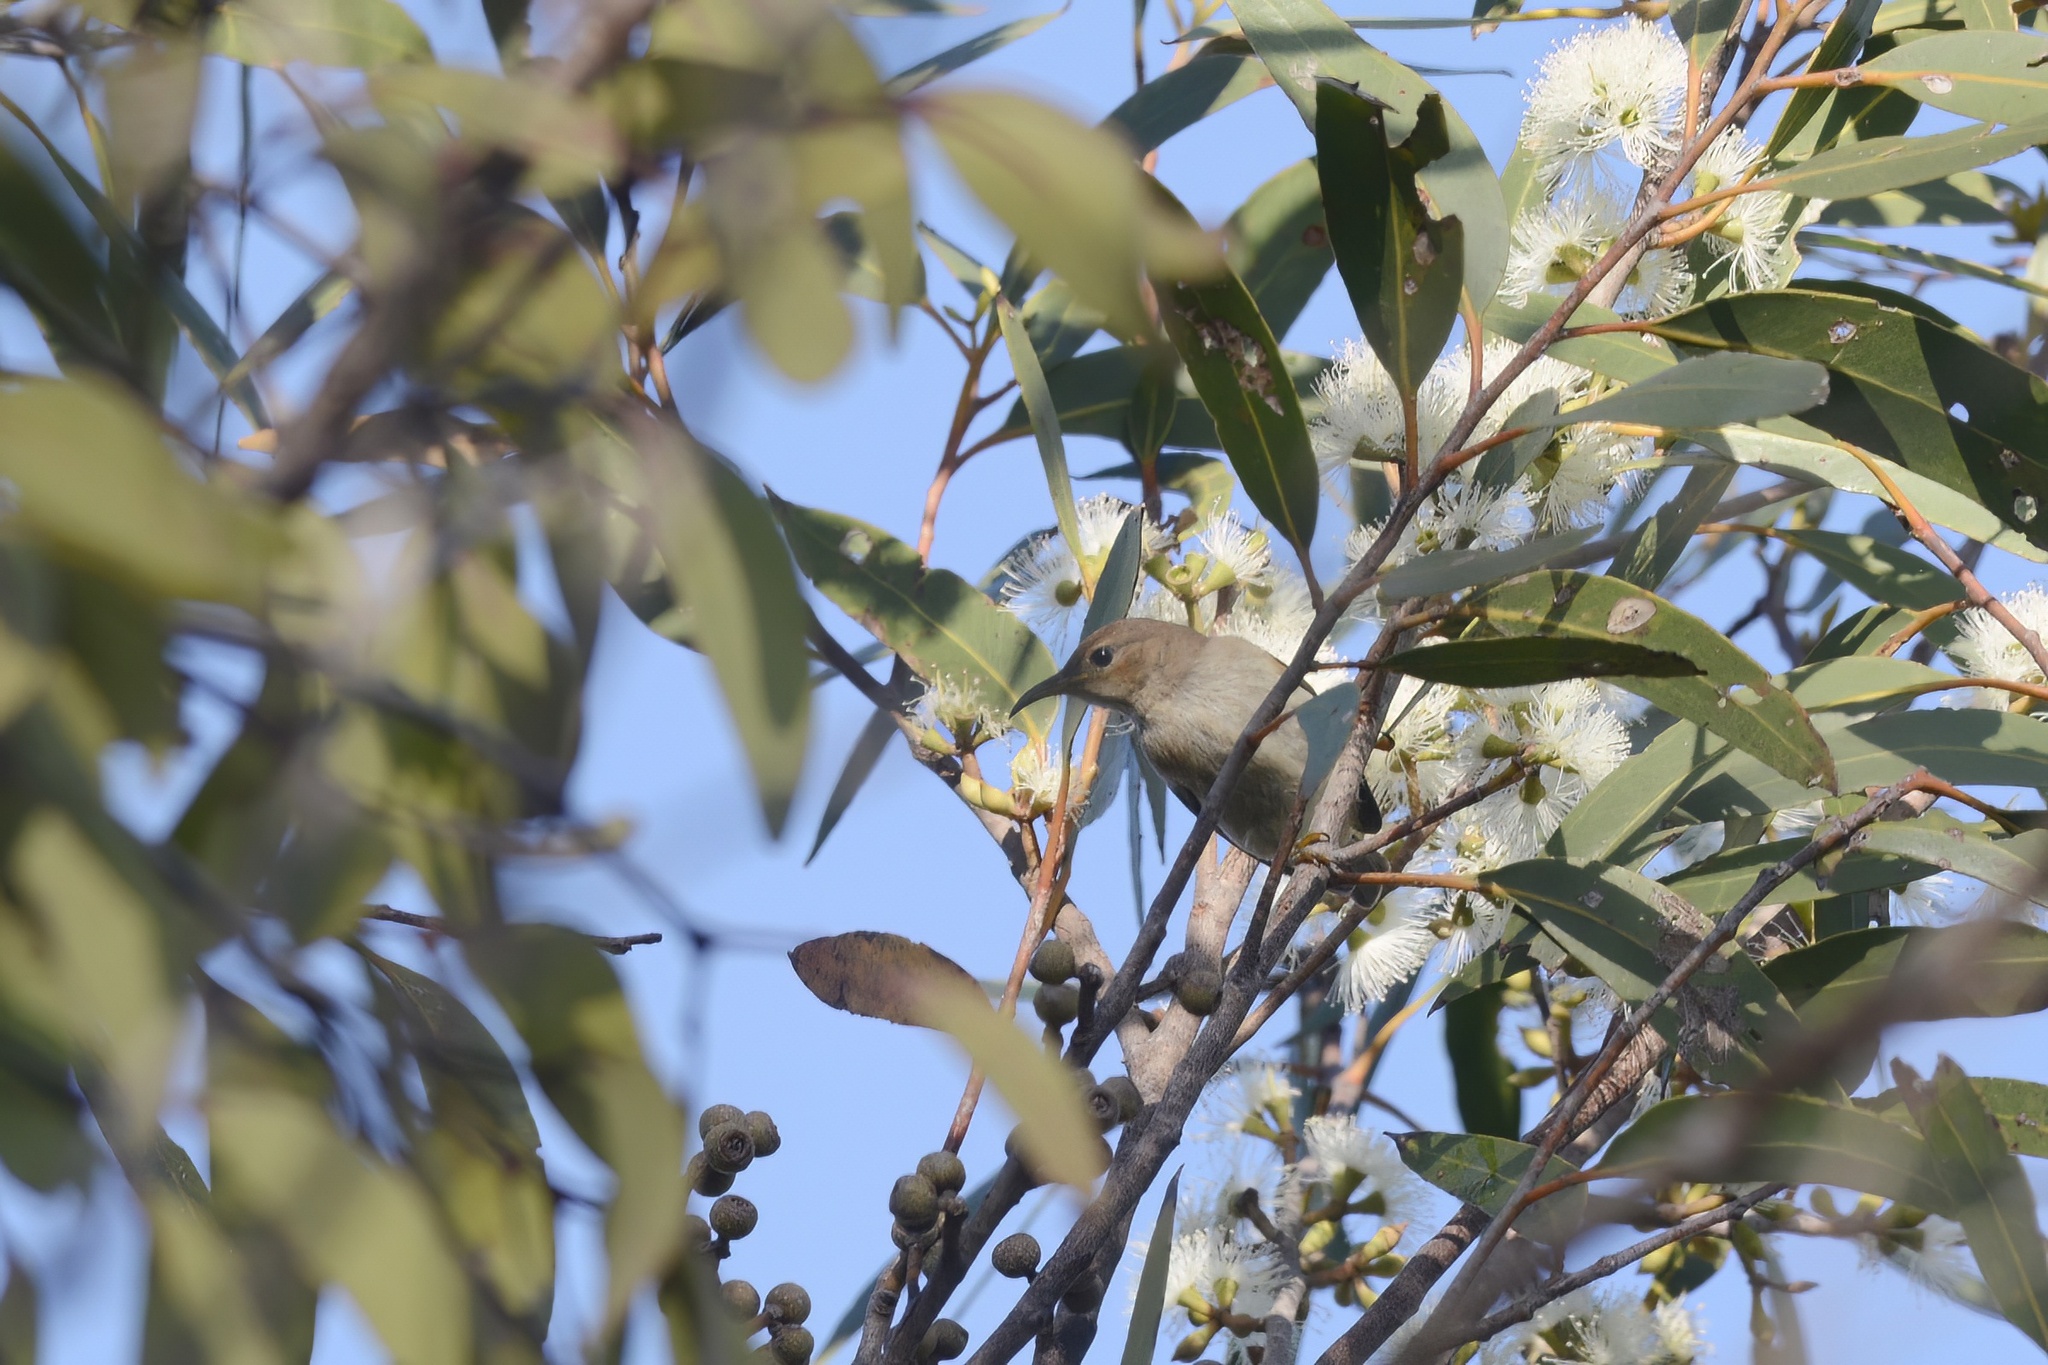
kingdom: Animalia
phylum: Chordata
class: Aves
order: Passeriformes
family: Meliphagidae
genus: Myzomela
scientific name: Myzomela sanguinolenta
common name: Scarlet myzomela
